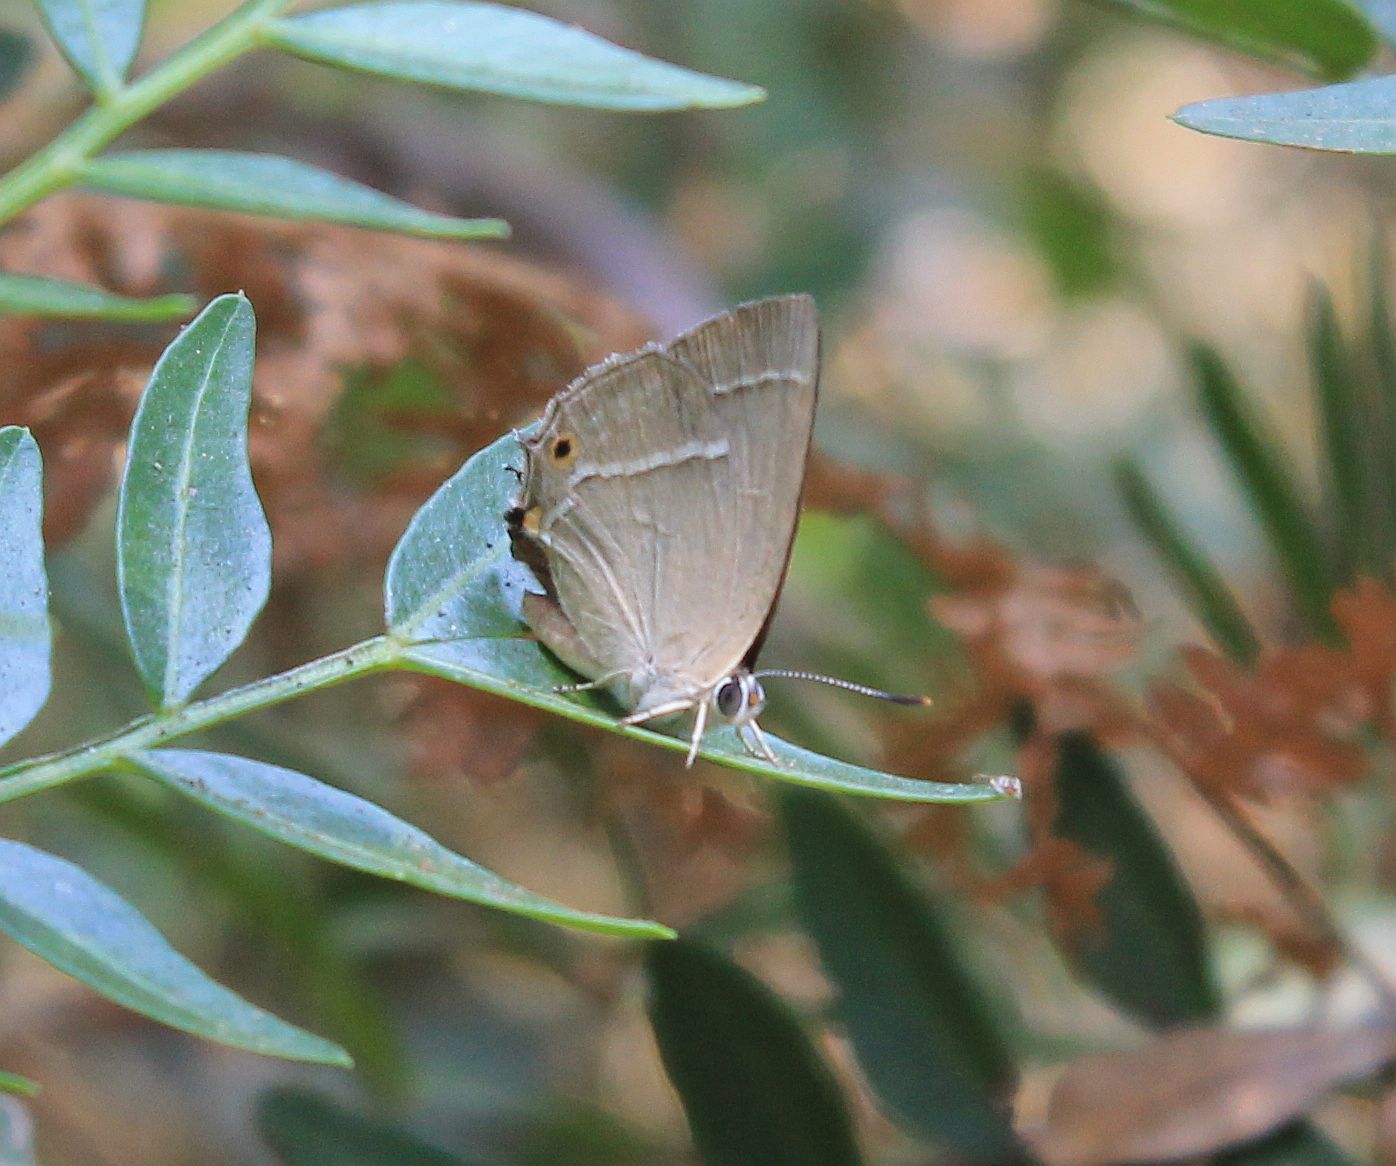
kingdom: Animalia
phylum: Arthropoda
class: Insecta
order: Lepidoptera
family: Lycaenidae
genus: Quercusia
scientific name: Quercusia quercus
